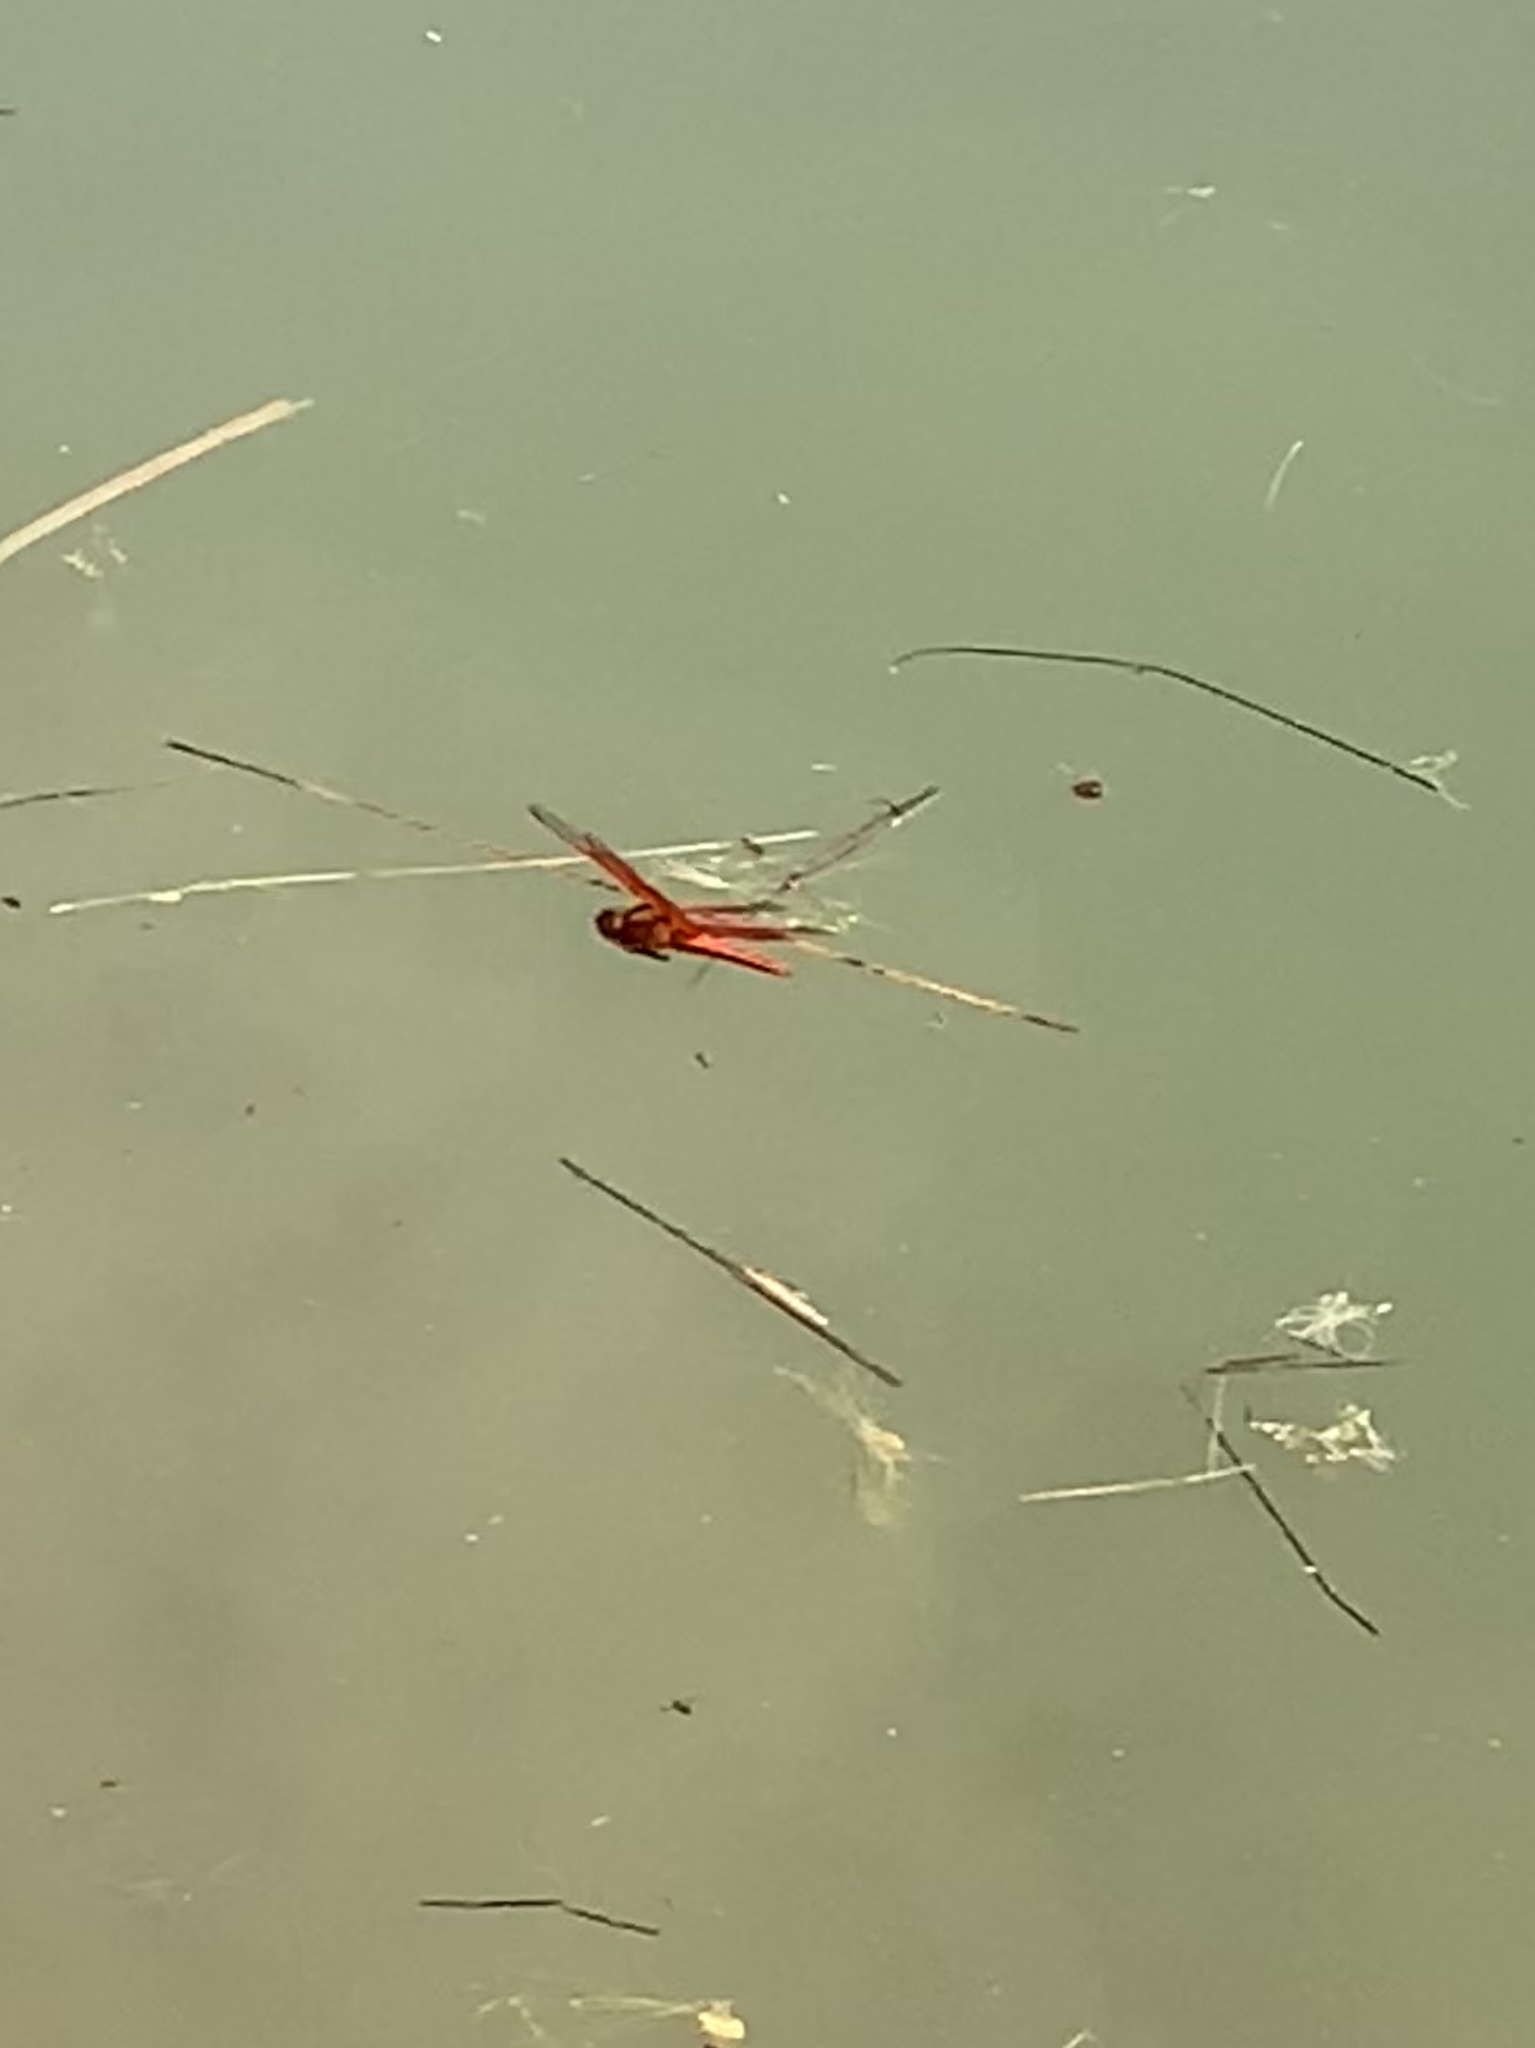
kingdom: Animalia
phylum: Arthropoda
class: Insecta
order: Odonata
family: Libellulidae
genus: Libellula
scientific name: Libellula saturata
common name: Flame skimmer
